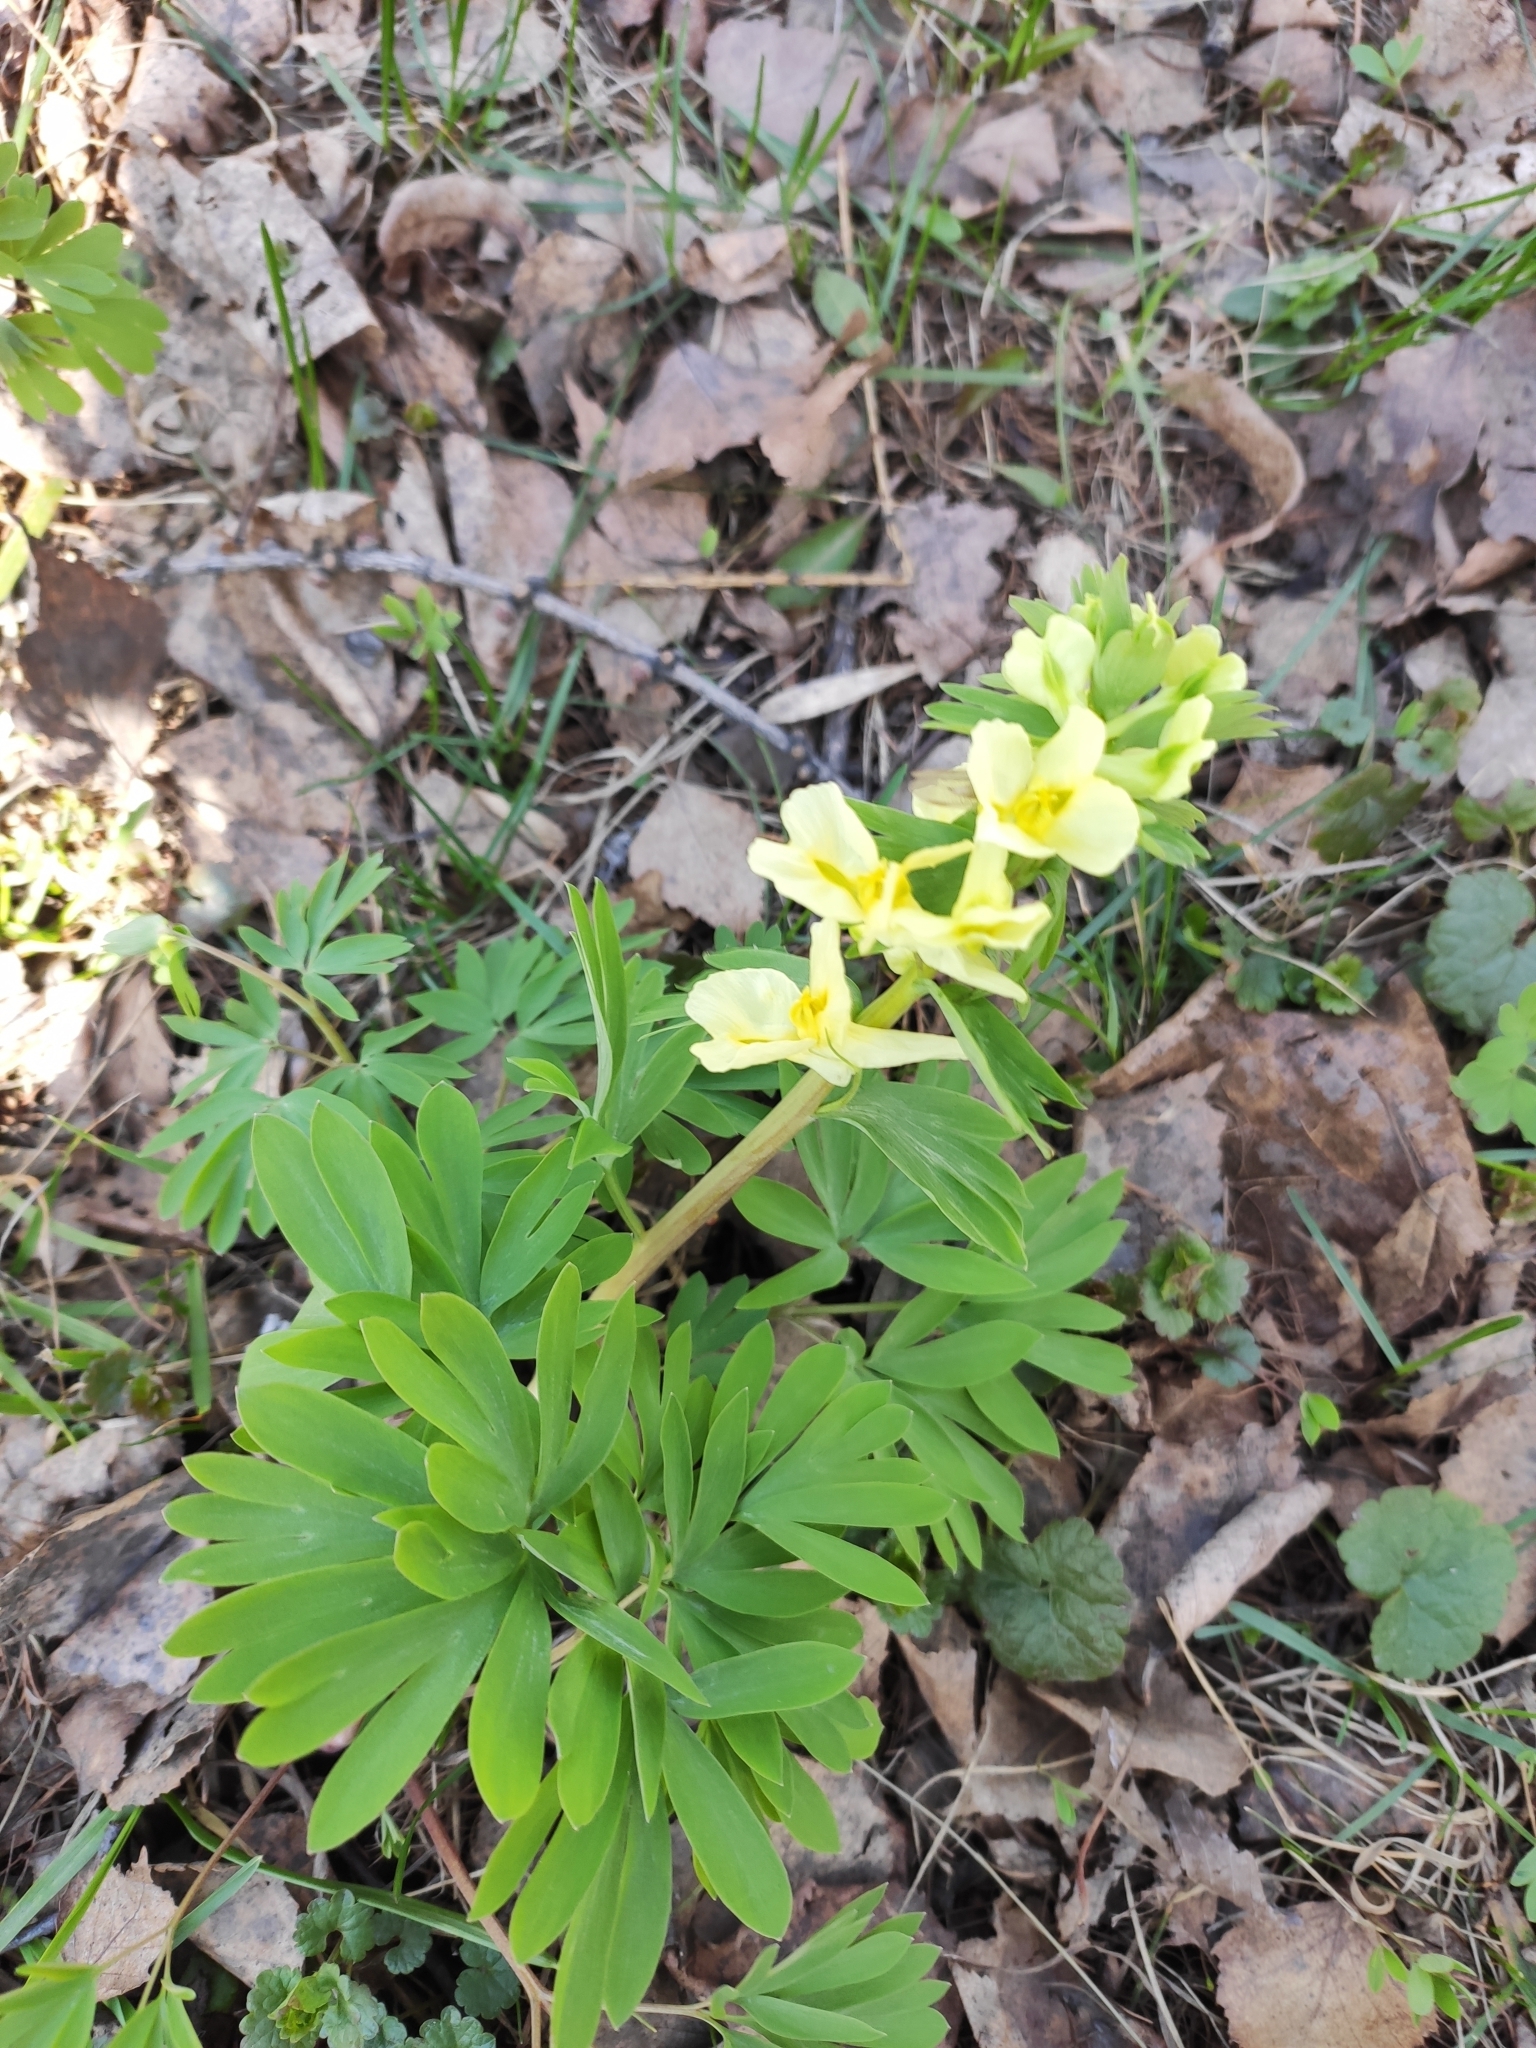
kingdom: Plantae
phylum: Tracheophyta
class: Magnoliopsida
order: Ranunculales
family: Papaveraceae
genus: Corydalis
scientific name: Corydalis bracteata
